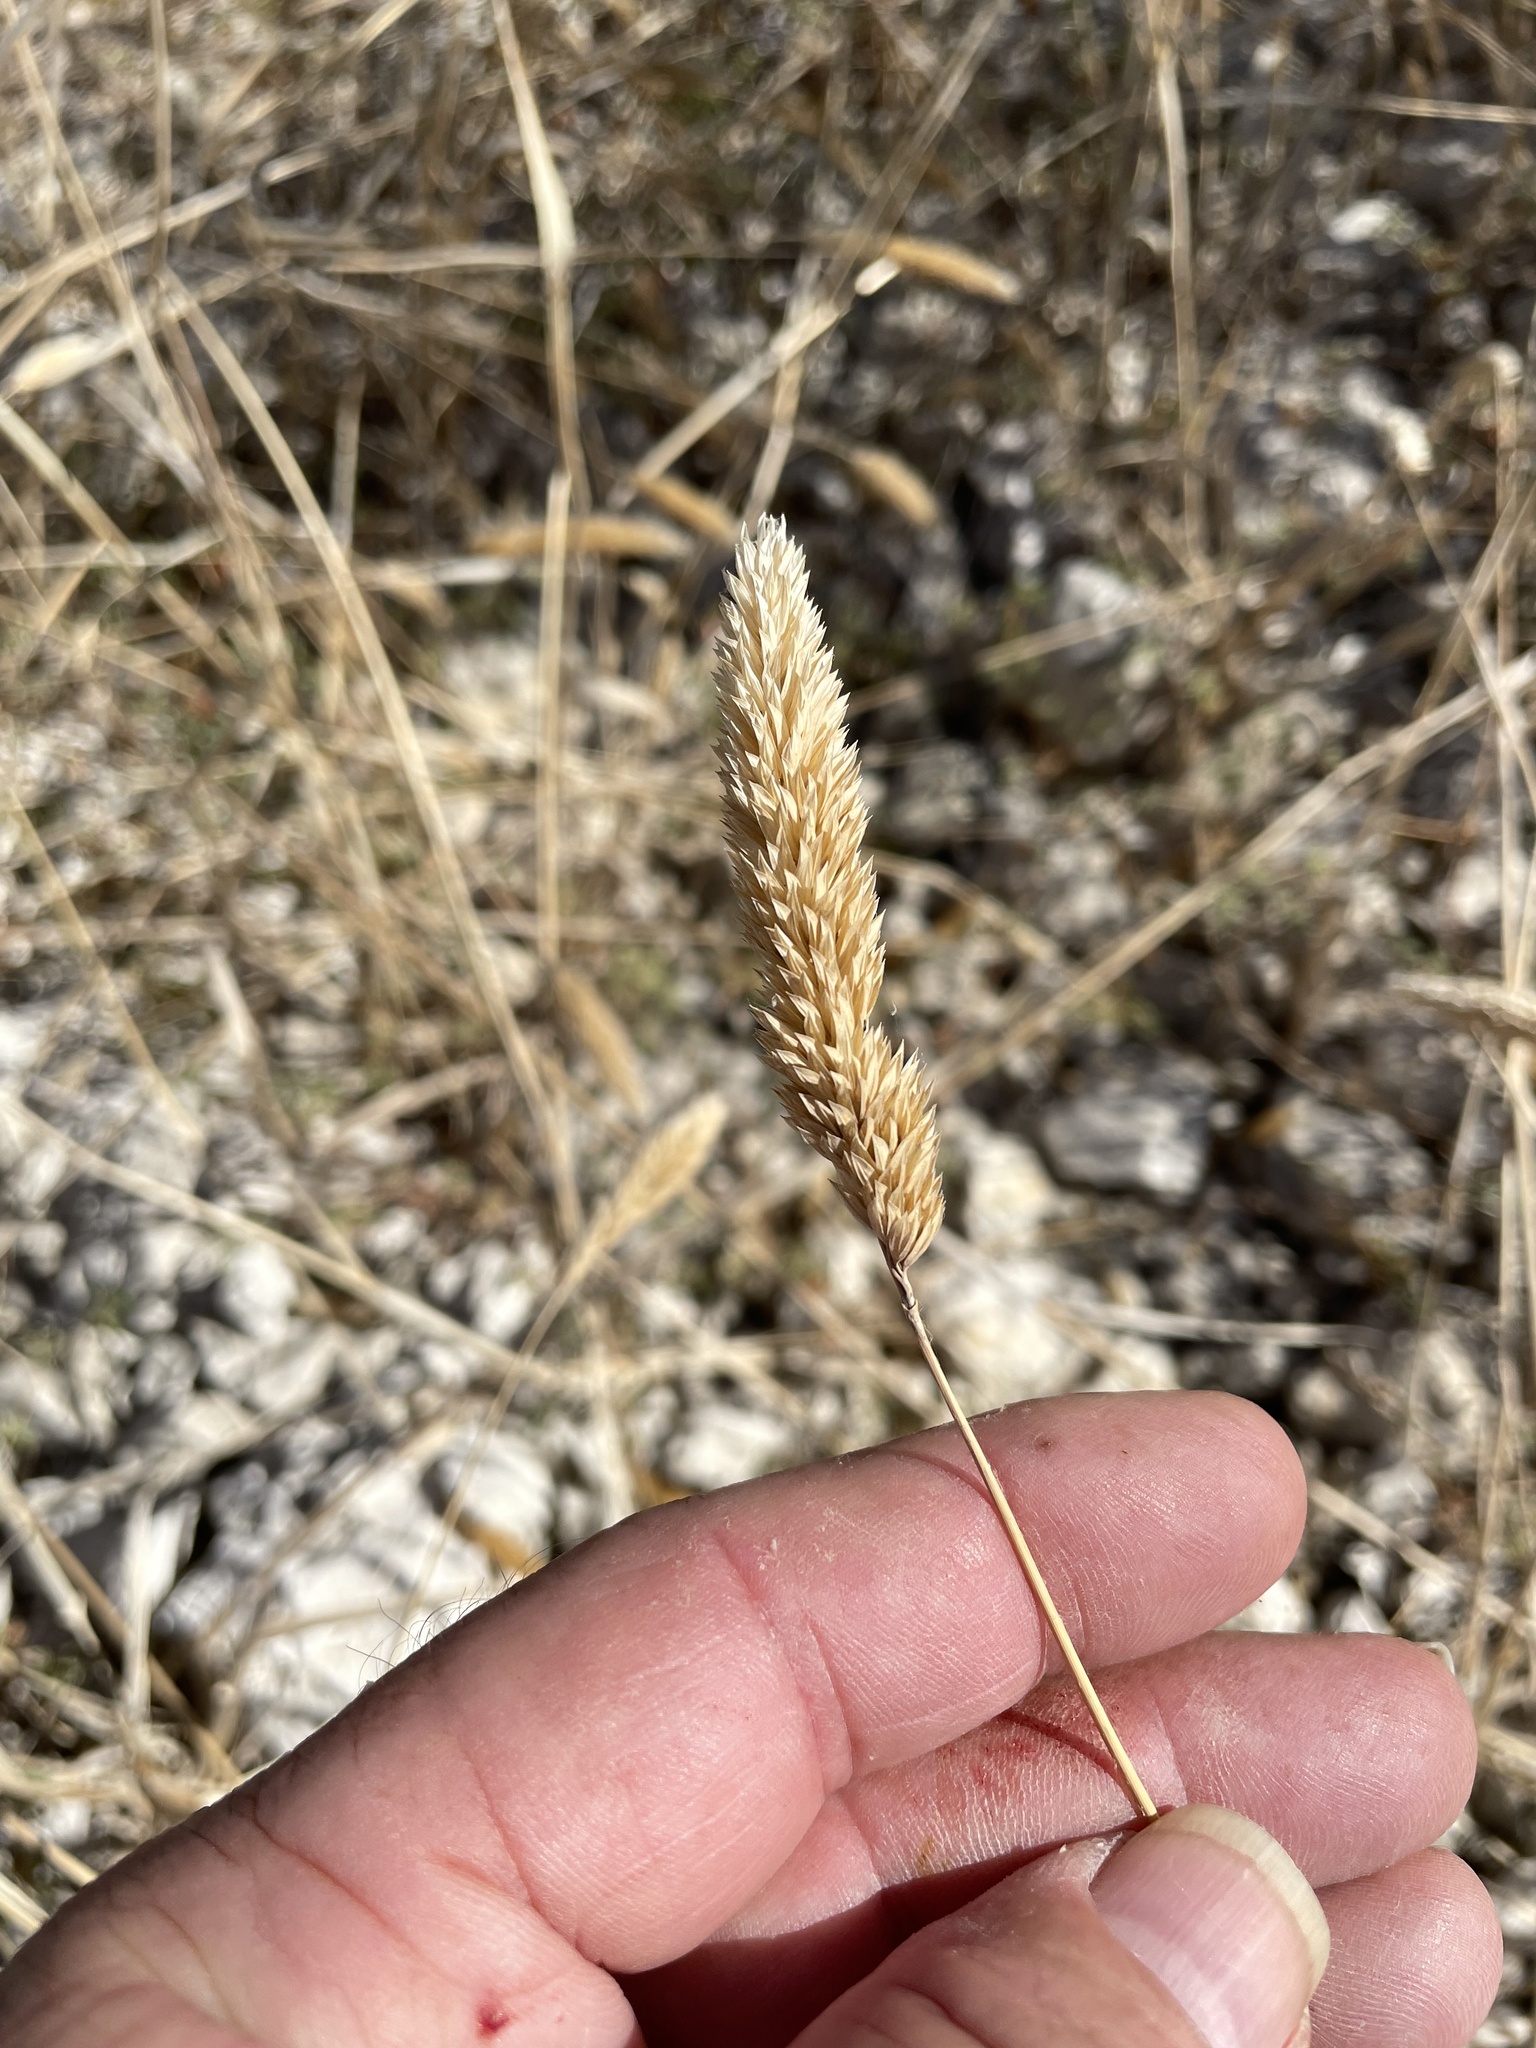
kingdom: Plantae
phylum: Tracheophyta
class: Liliopsida
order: Poales
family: Poaceae
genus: Phalaris
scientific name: Phalaris caroliniana
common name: May grass
